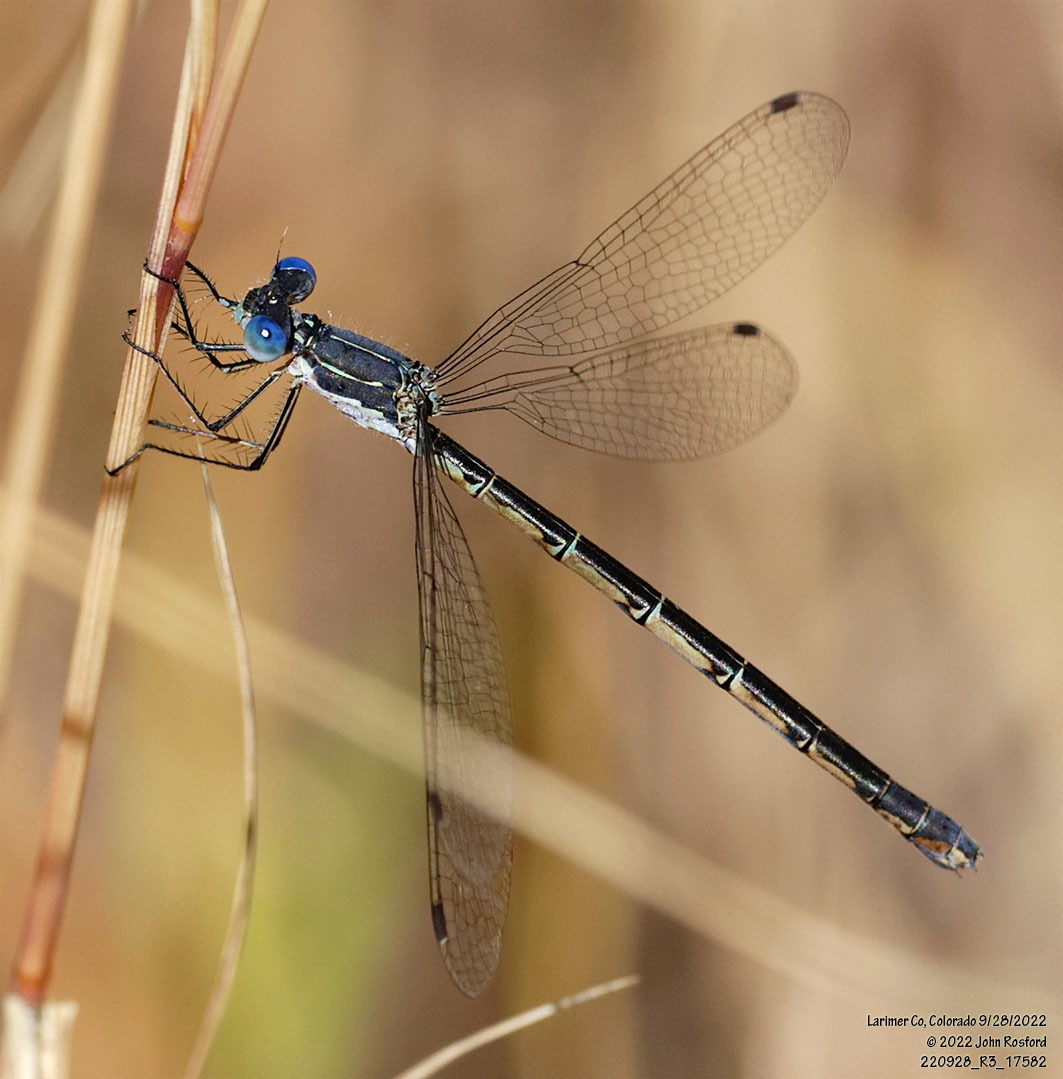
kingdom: Animalia
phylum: Arthropoda
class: Insecta
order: Odonata
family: Lestidae
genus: Lestes
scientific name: Lestes congener
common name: Spotted spreadwing
